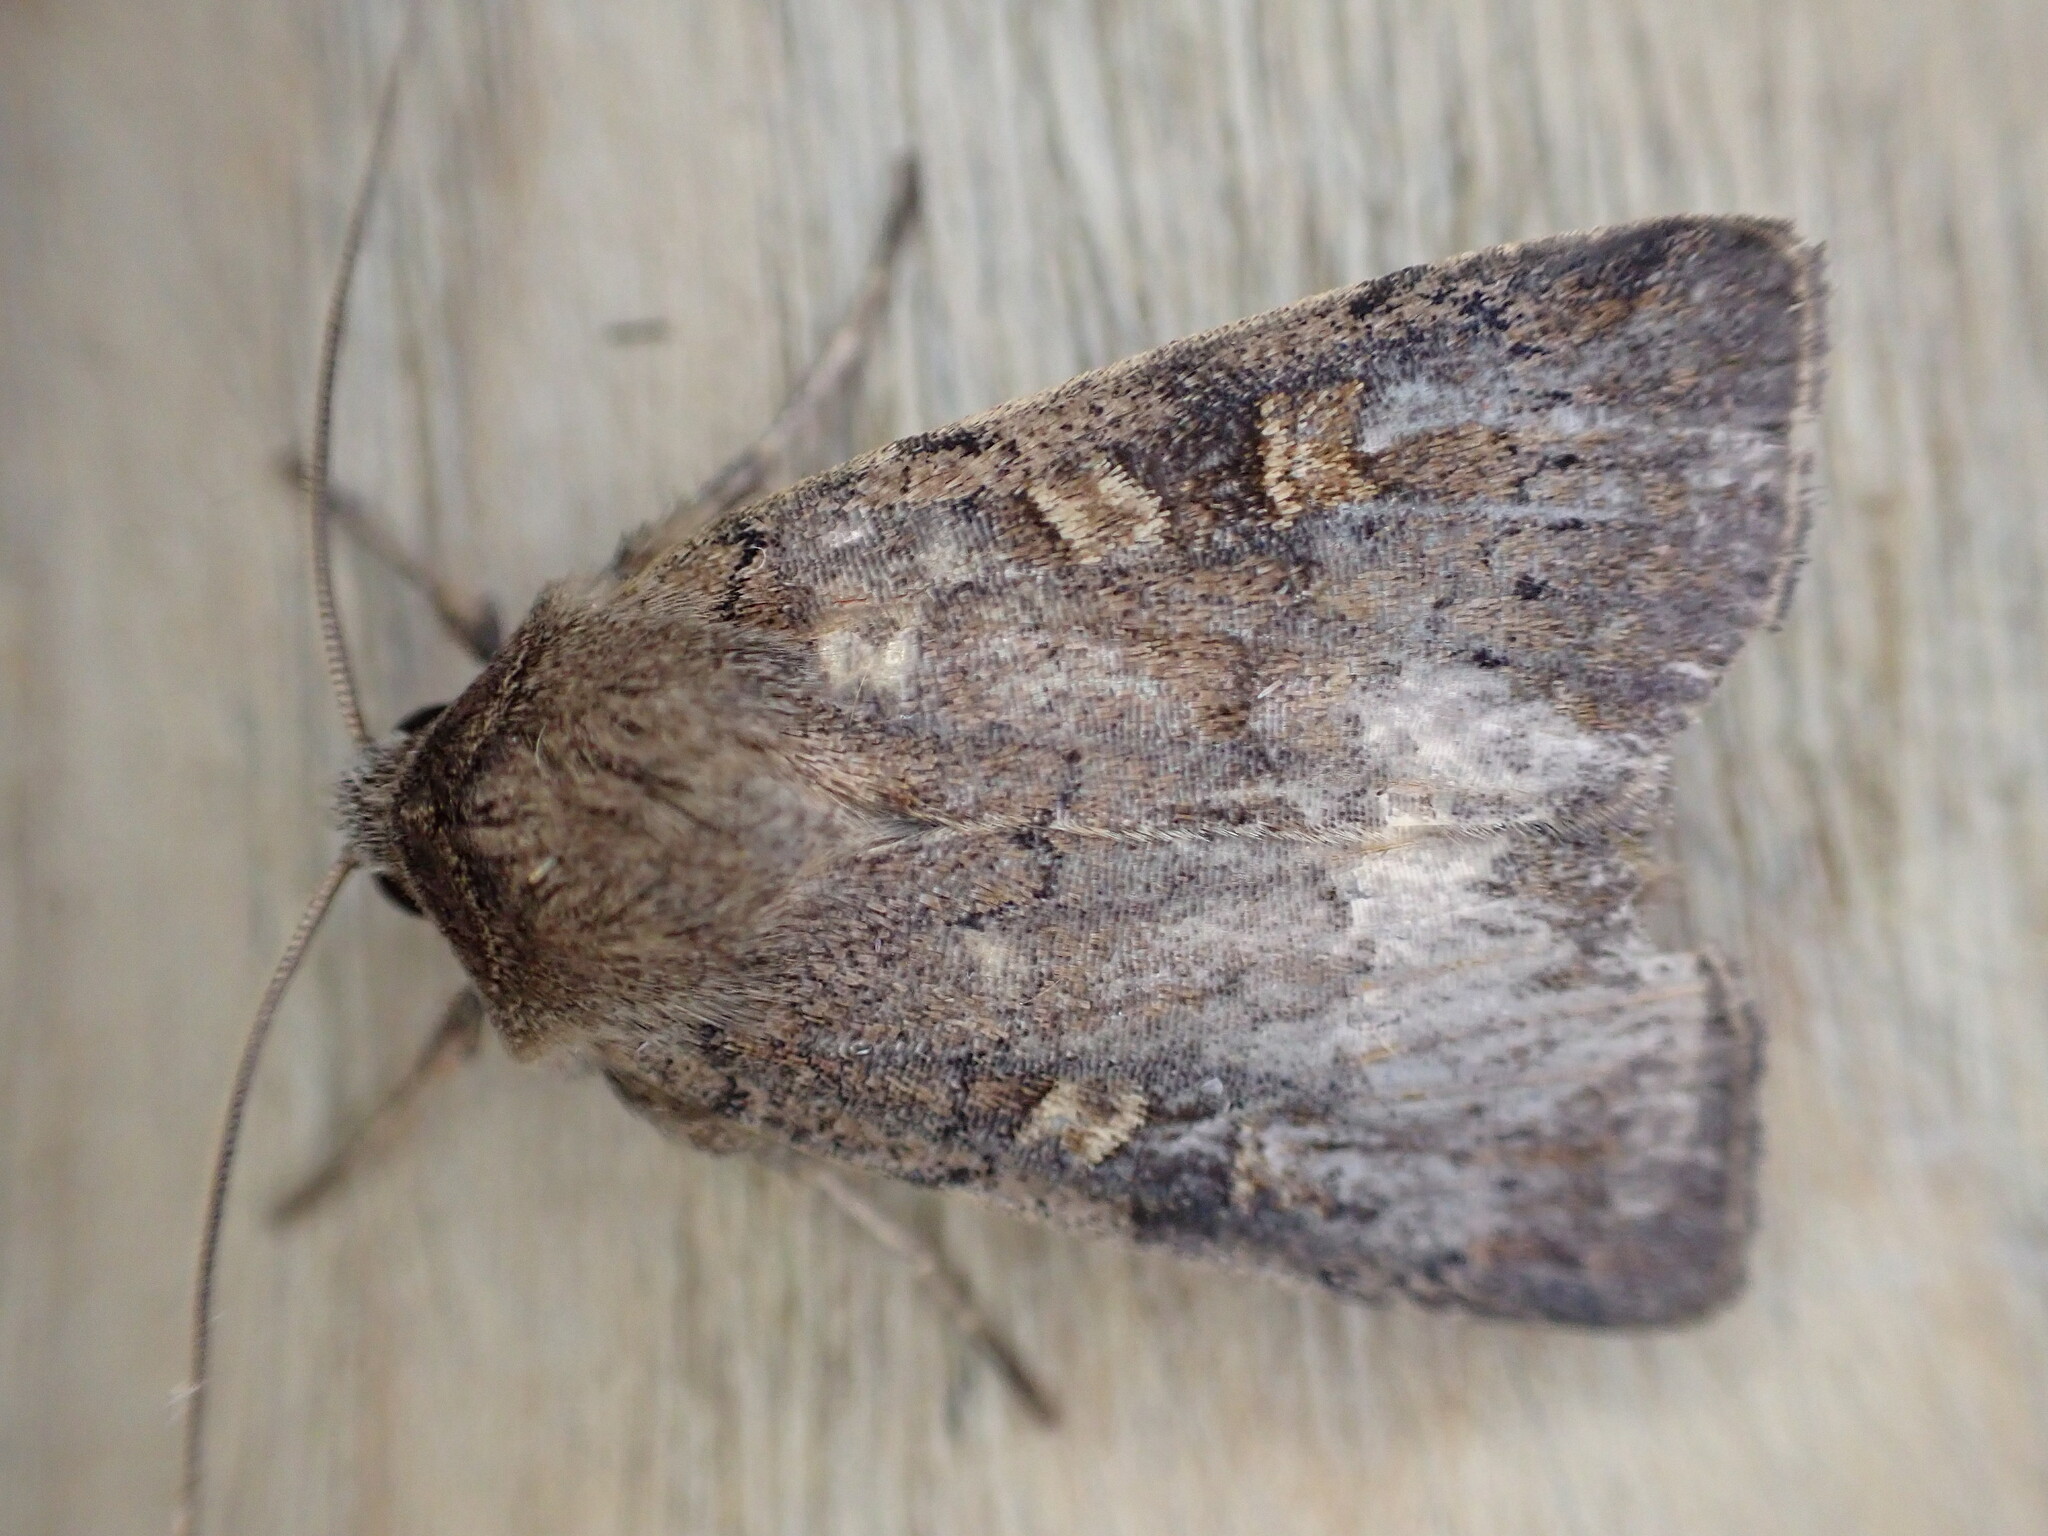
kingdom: Animalia
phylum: Arthropoda
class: Insecta
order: Lepidoptera
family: Noctuidae
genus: Xestia
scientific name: Xestia xanthographa
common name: Square-spot rustic
